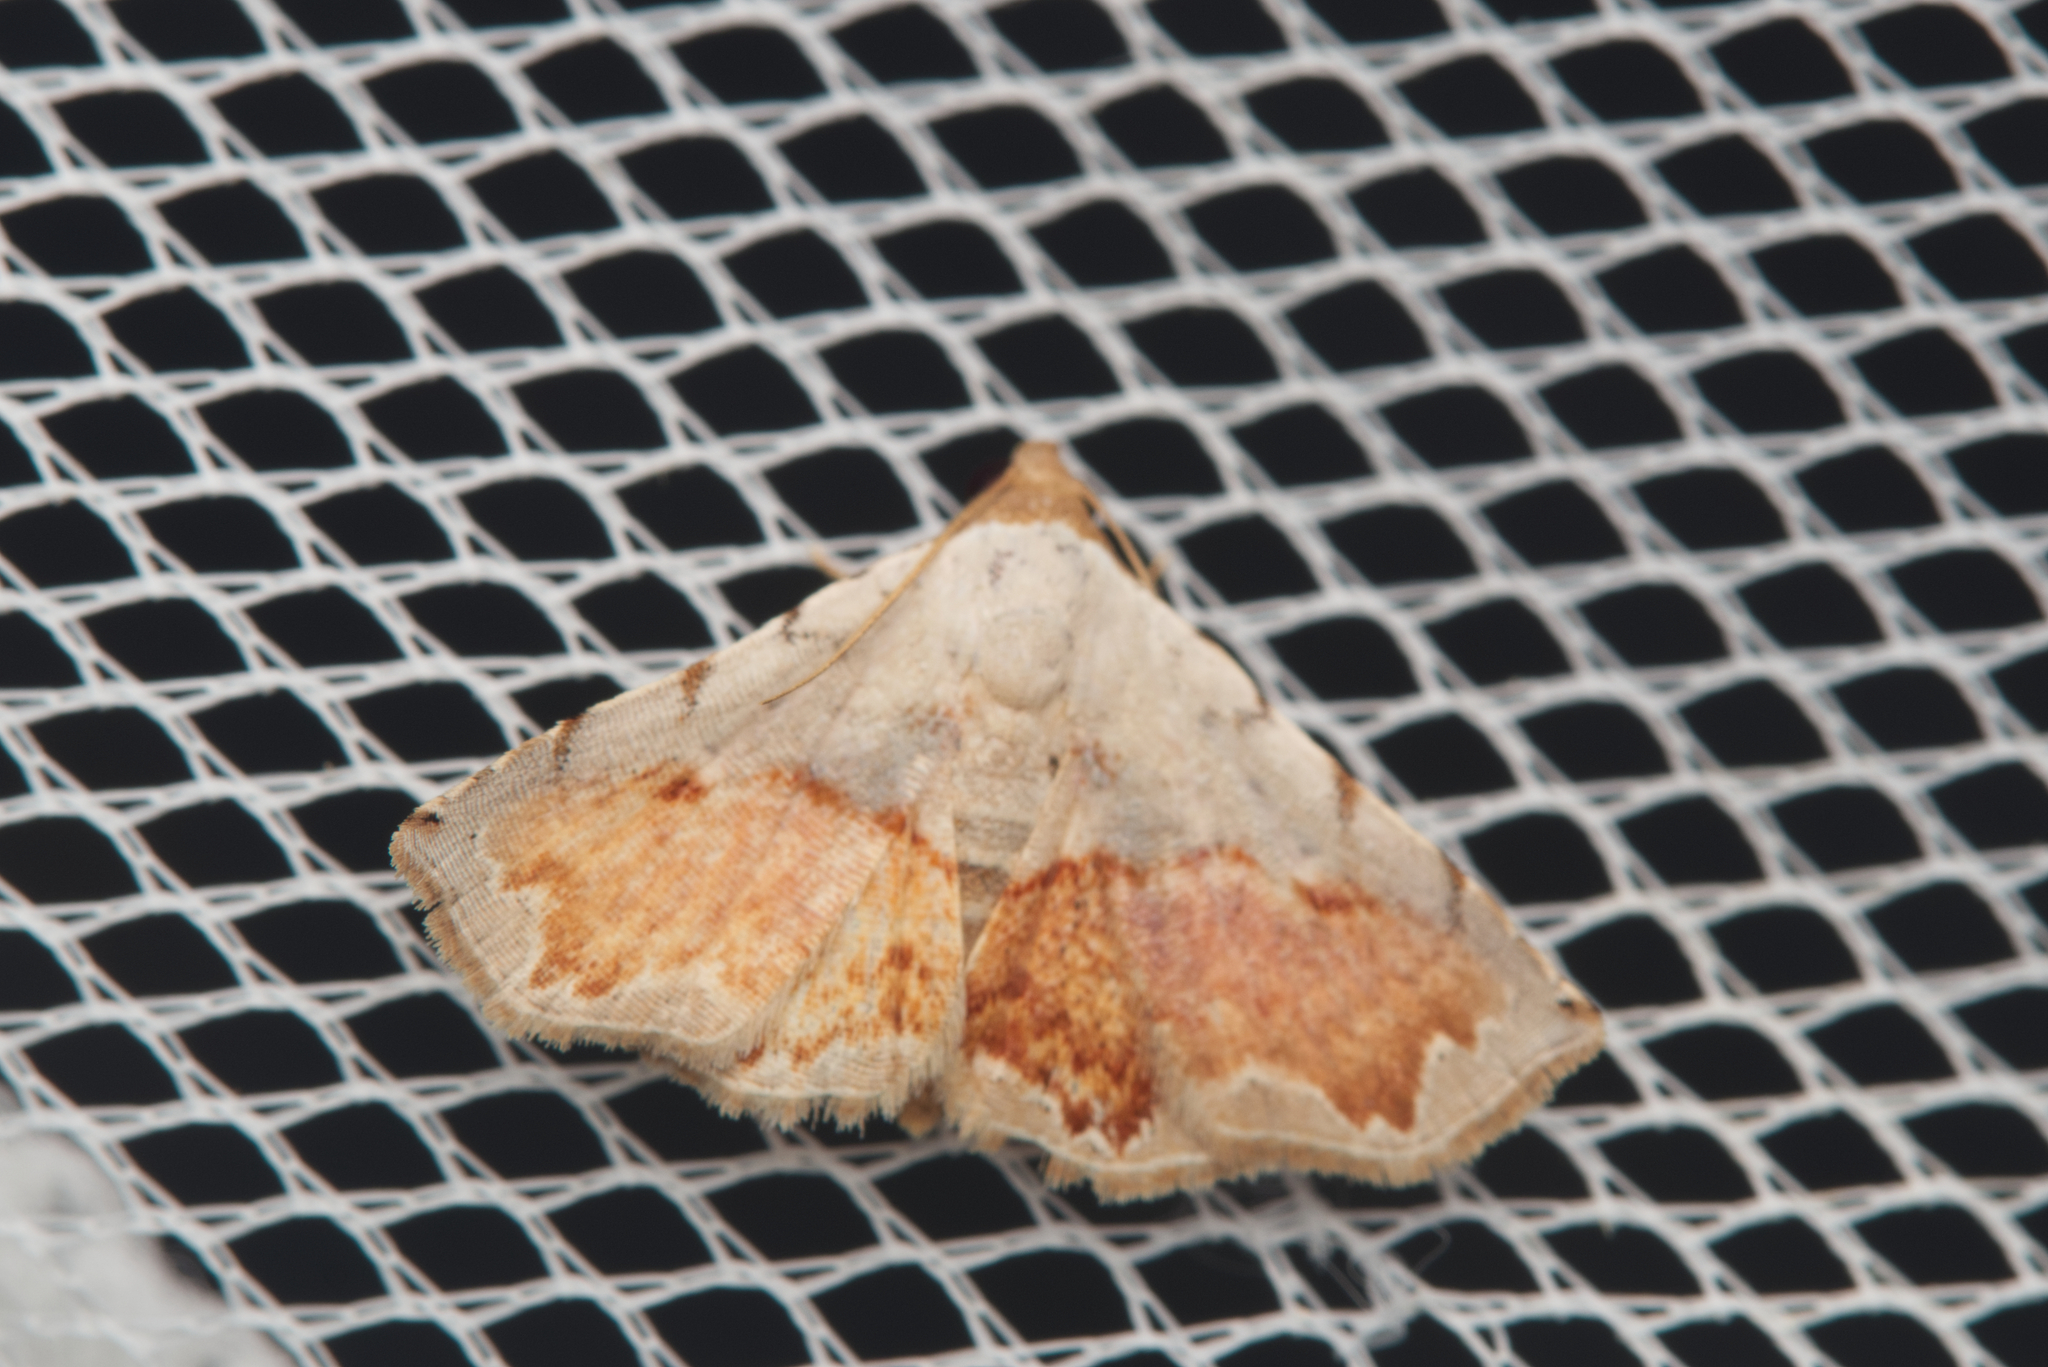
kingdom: Animalia
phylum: Arthropoda
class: Insecta
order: Lepidoptera
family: Noctuidae
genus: Eublemma
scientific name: Eublemma
